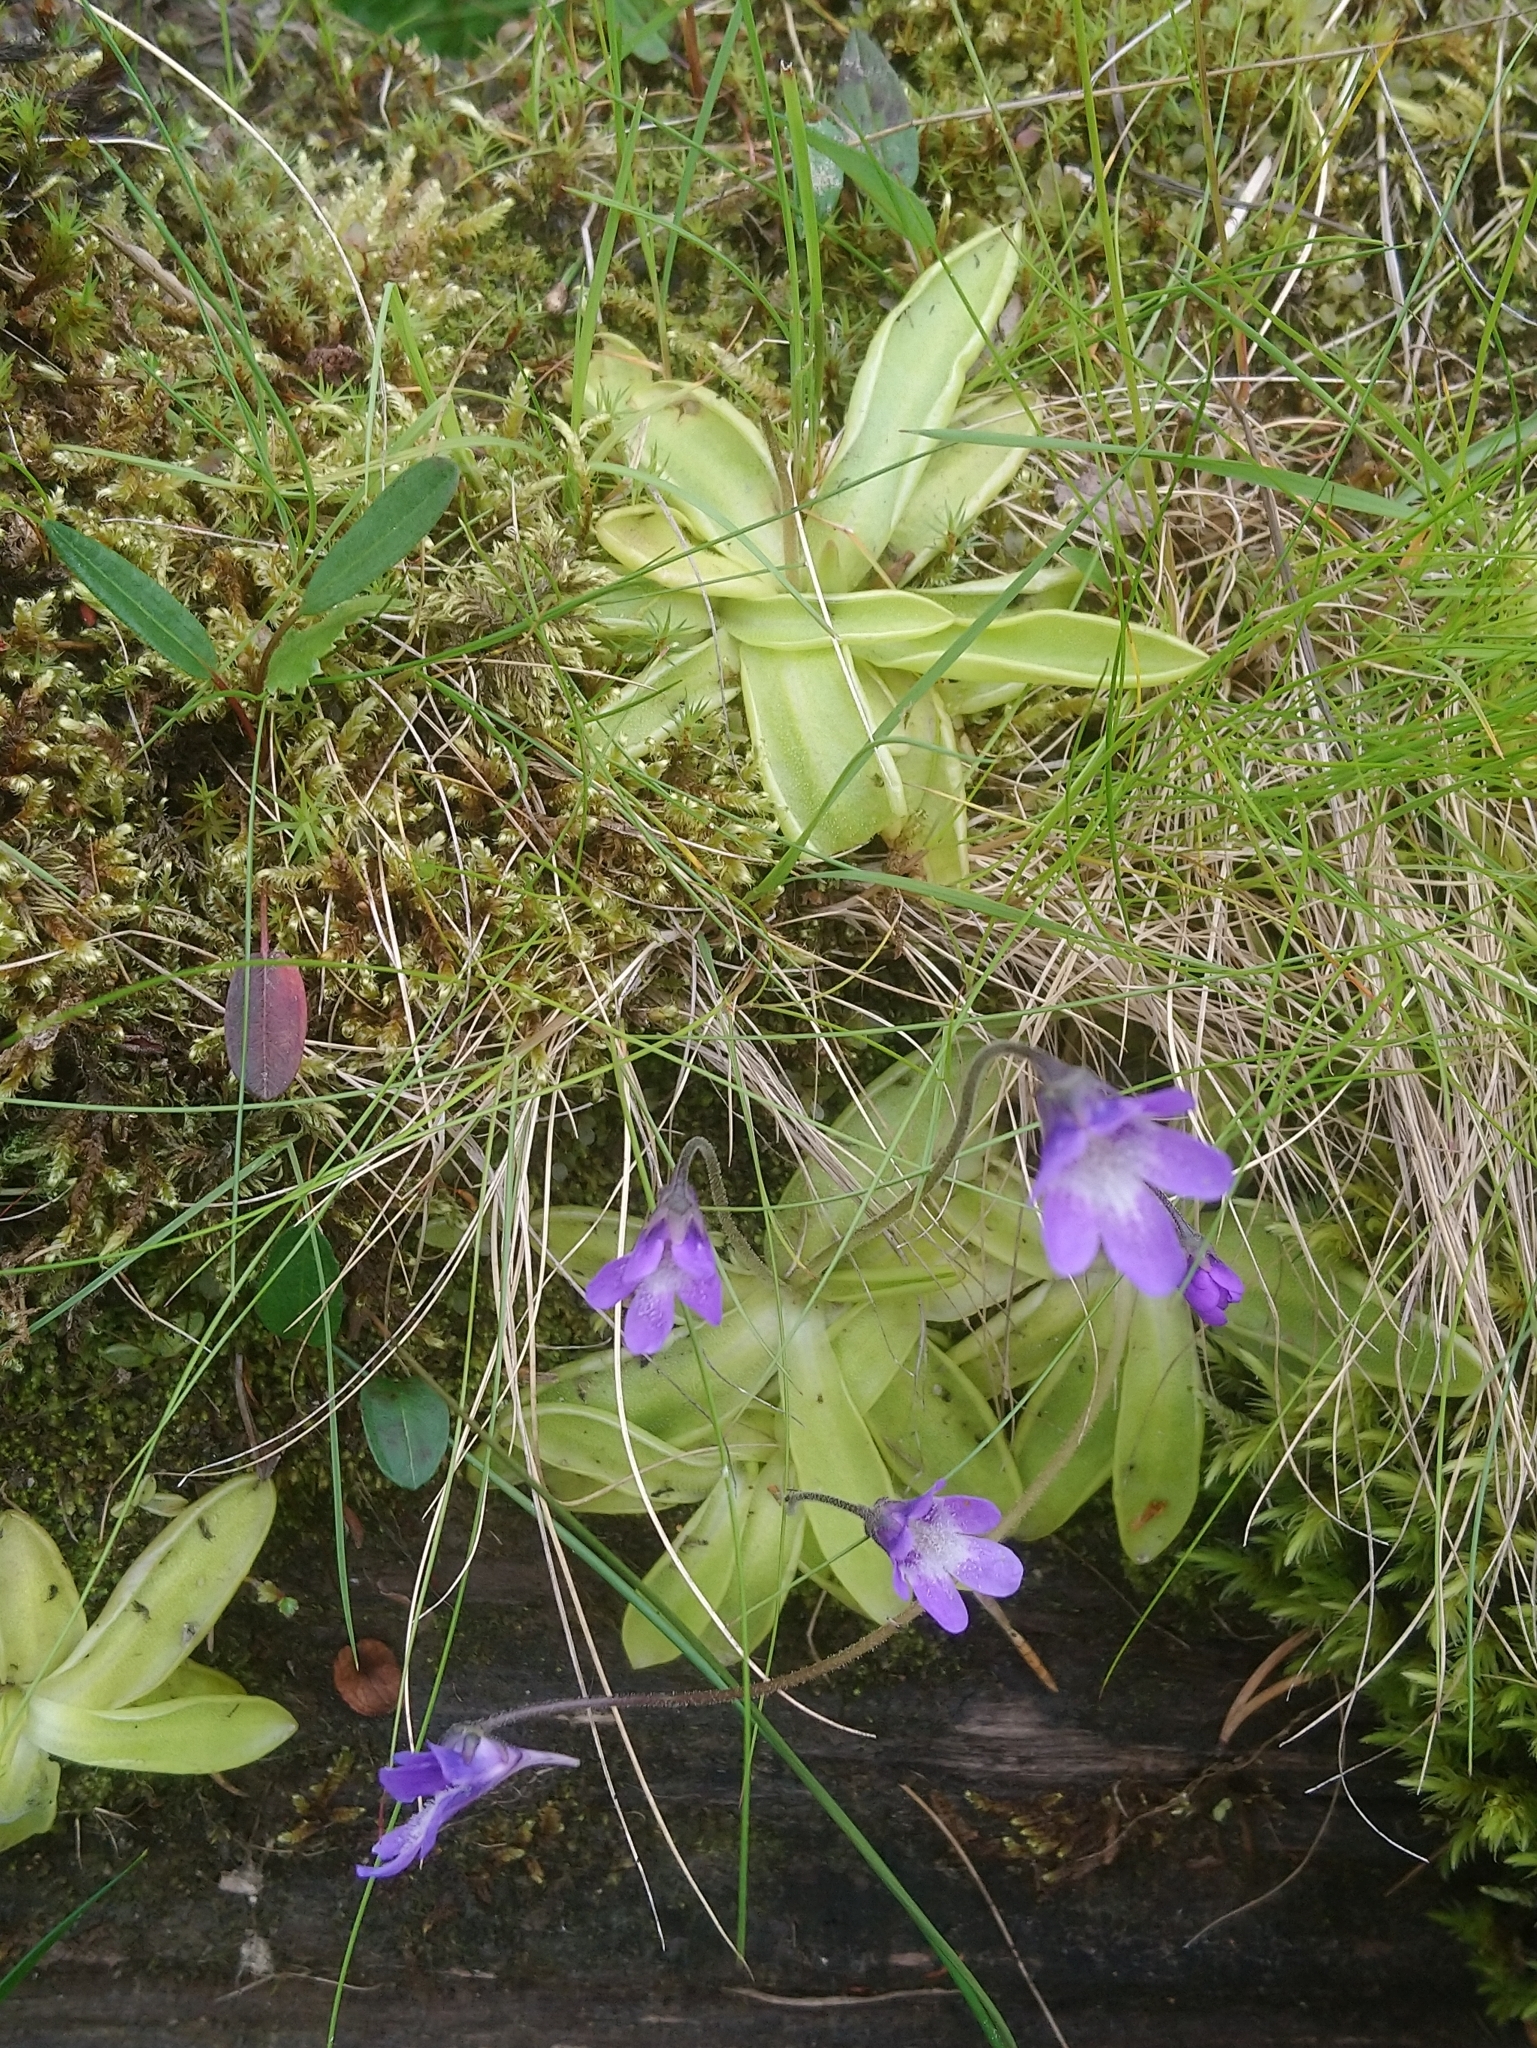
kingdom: Plantae
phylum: Tracheophyta
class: Magnoliopsida
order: Lamiales
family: Lentibulariaceae
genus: Pinguicula
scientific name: Pinguicula vulgaris
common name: Common butterwort
